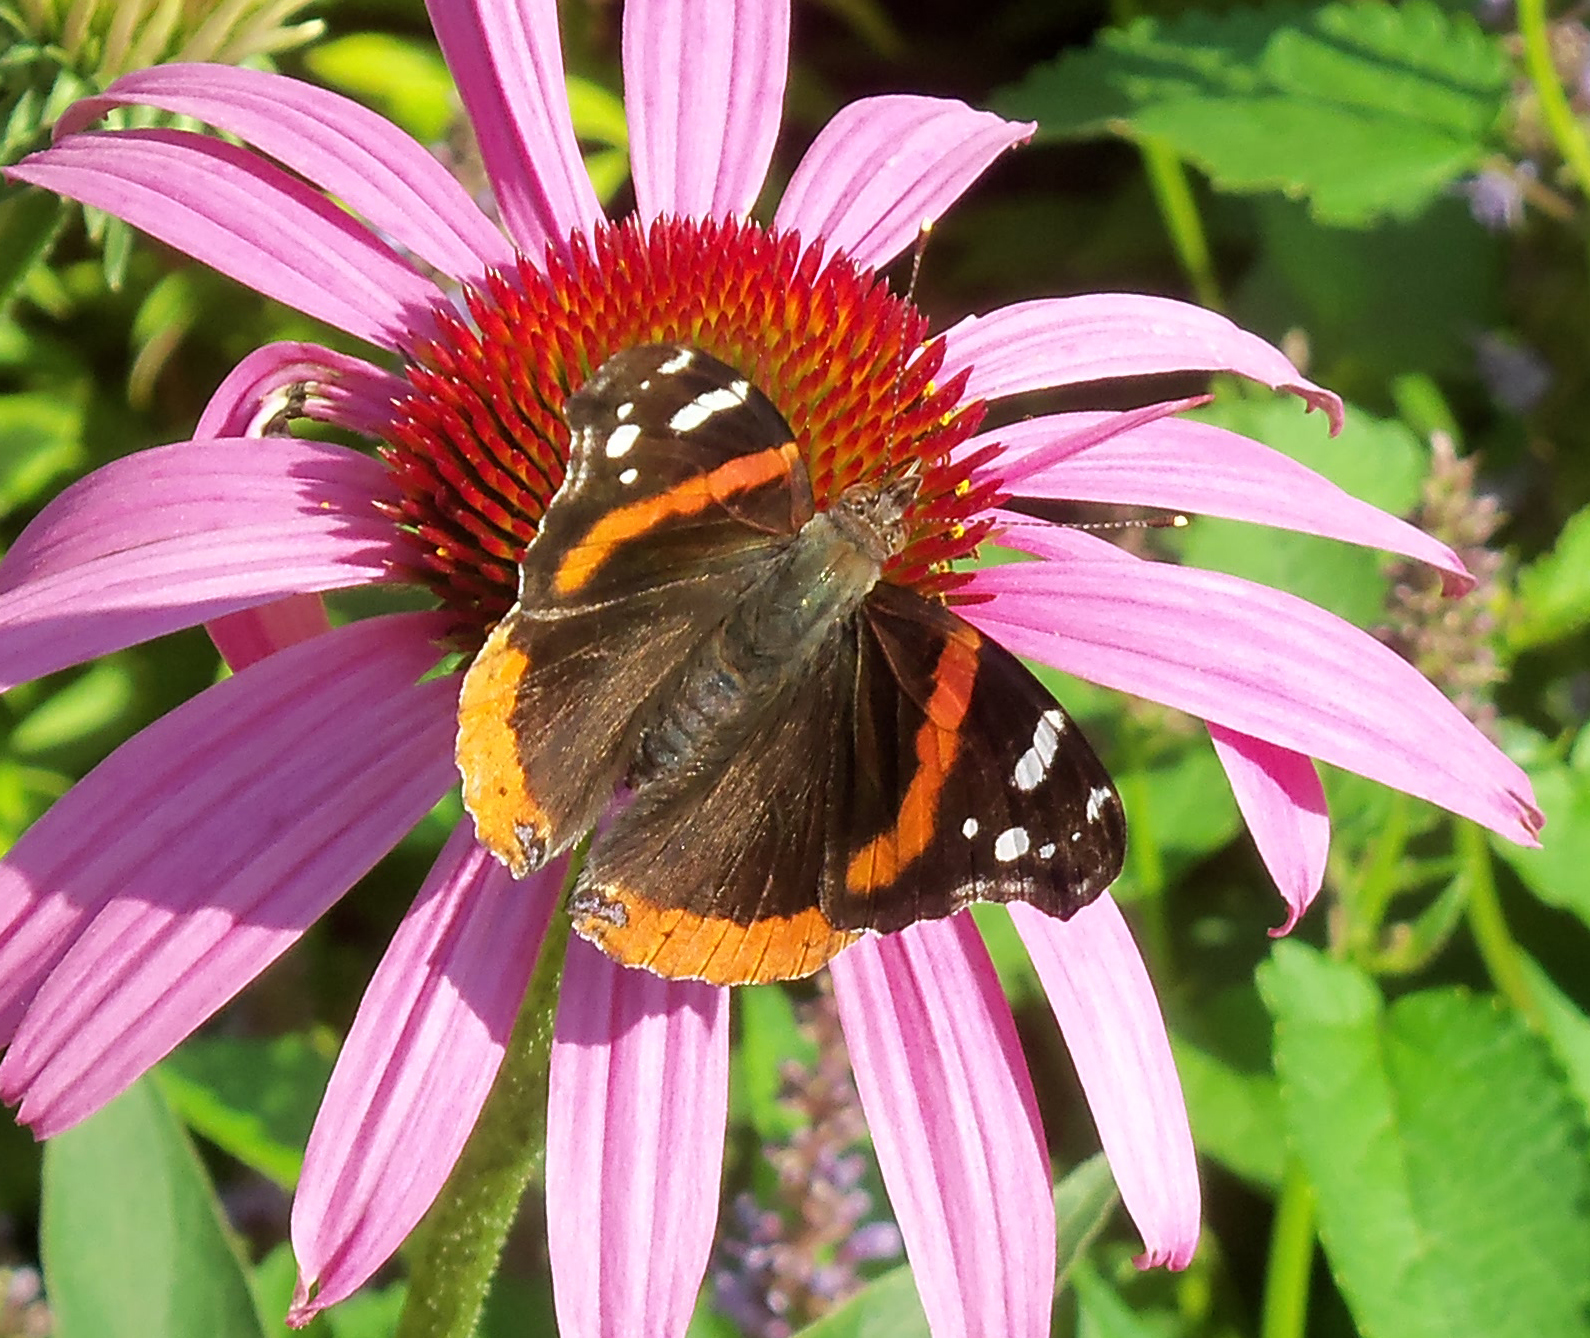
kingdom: Animalia
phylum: Arthropoda
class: Insecta
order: Lepidoptera
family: Nymphalidae
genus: Vanessa
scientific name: Vanessa atalanta
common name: Red admiral
